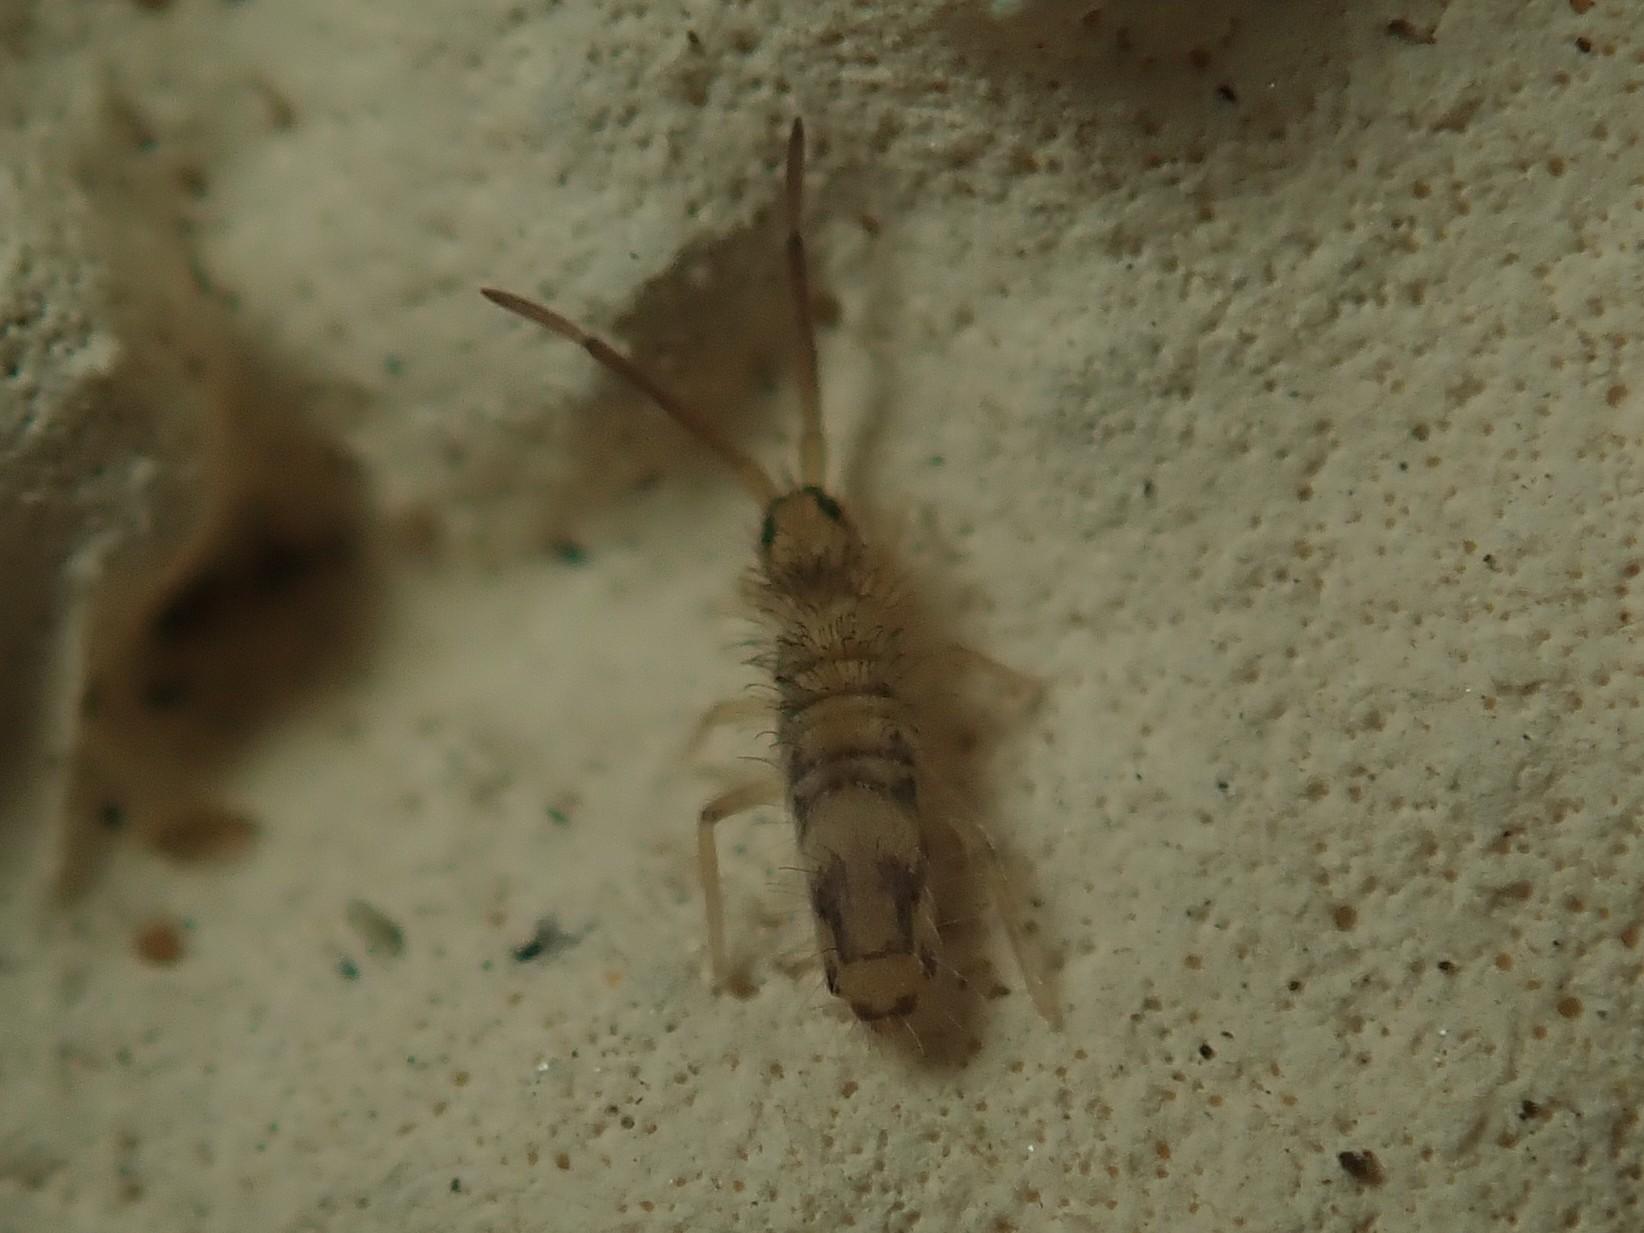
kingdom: Animalia
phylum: Arthropoda
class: Collembola
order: Entomobryomorpha
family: Entomobryidae
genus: Entomobrya
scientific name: Entomobrya nivalis
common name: Cosmopolitan springtail
